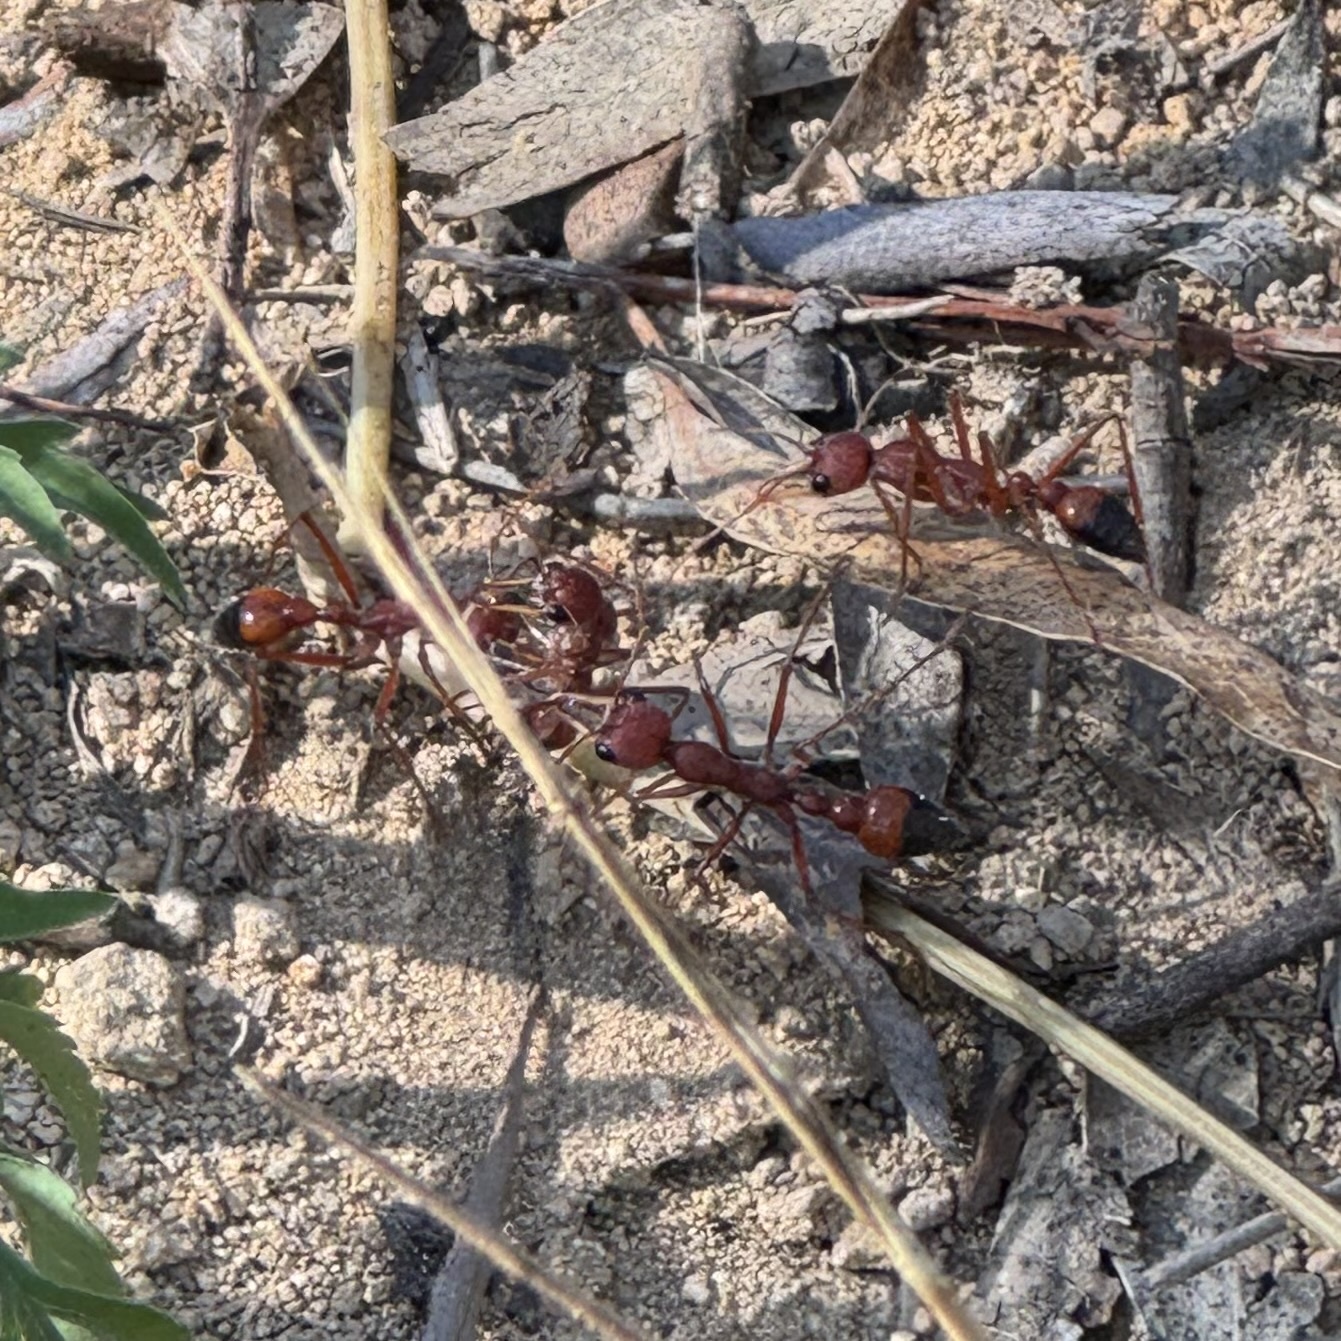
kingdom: Animalia
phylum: Arthropoda
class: Insecta
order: Hymenoptera
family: Formicidae
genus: Myrmecia
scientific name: Myrmecia gulosa
